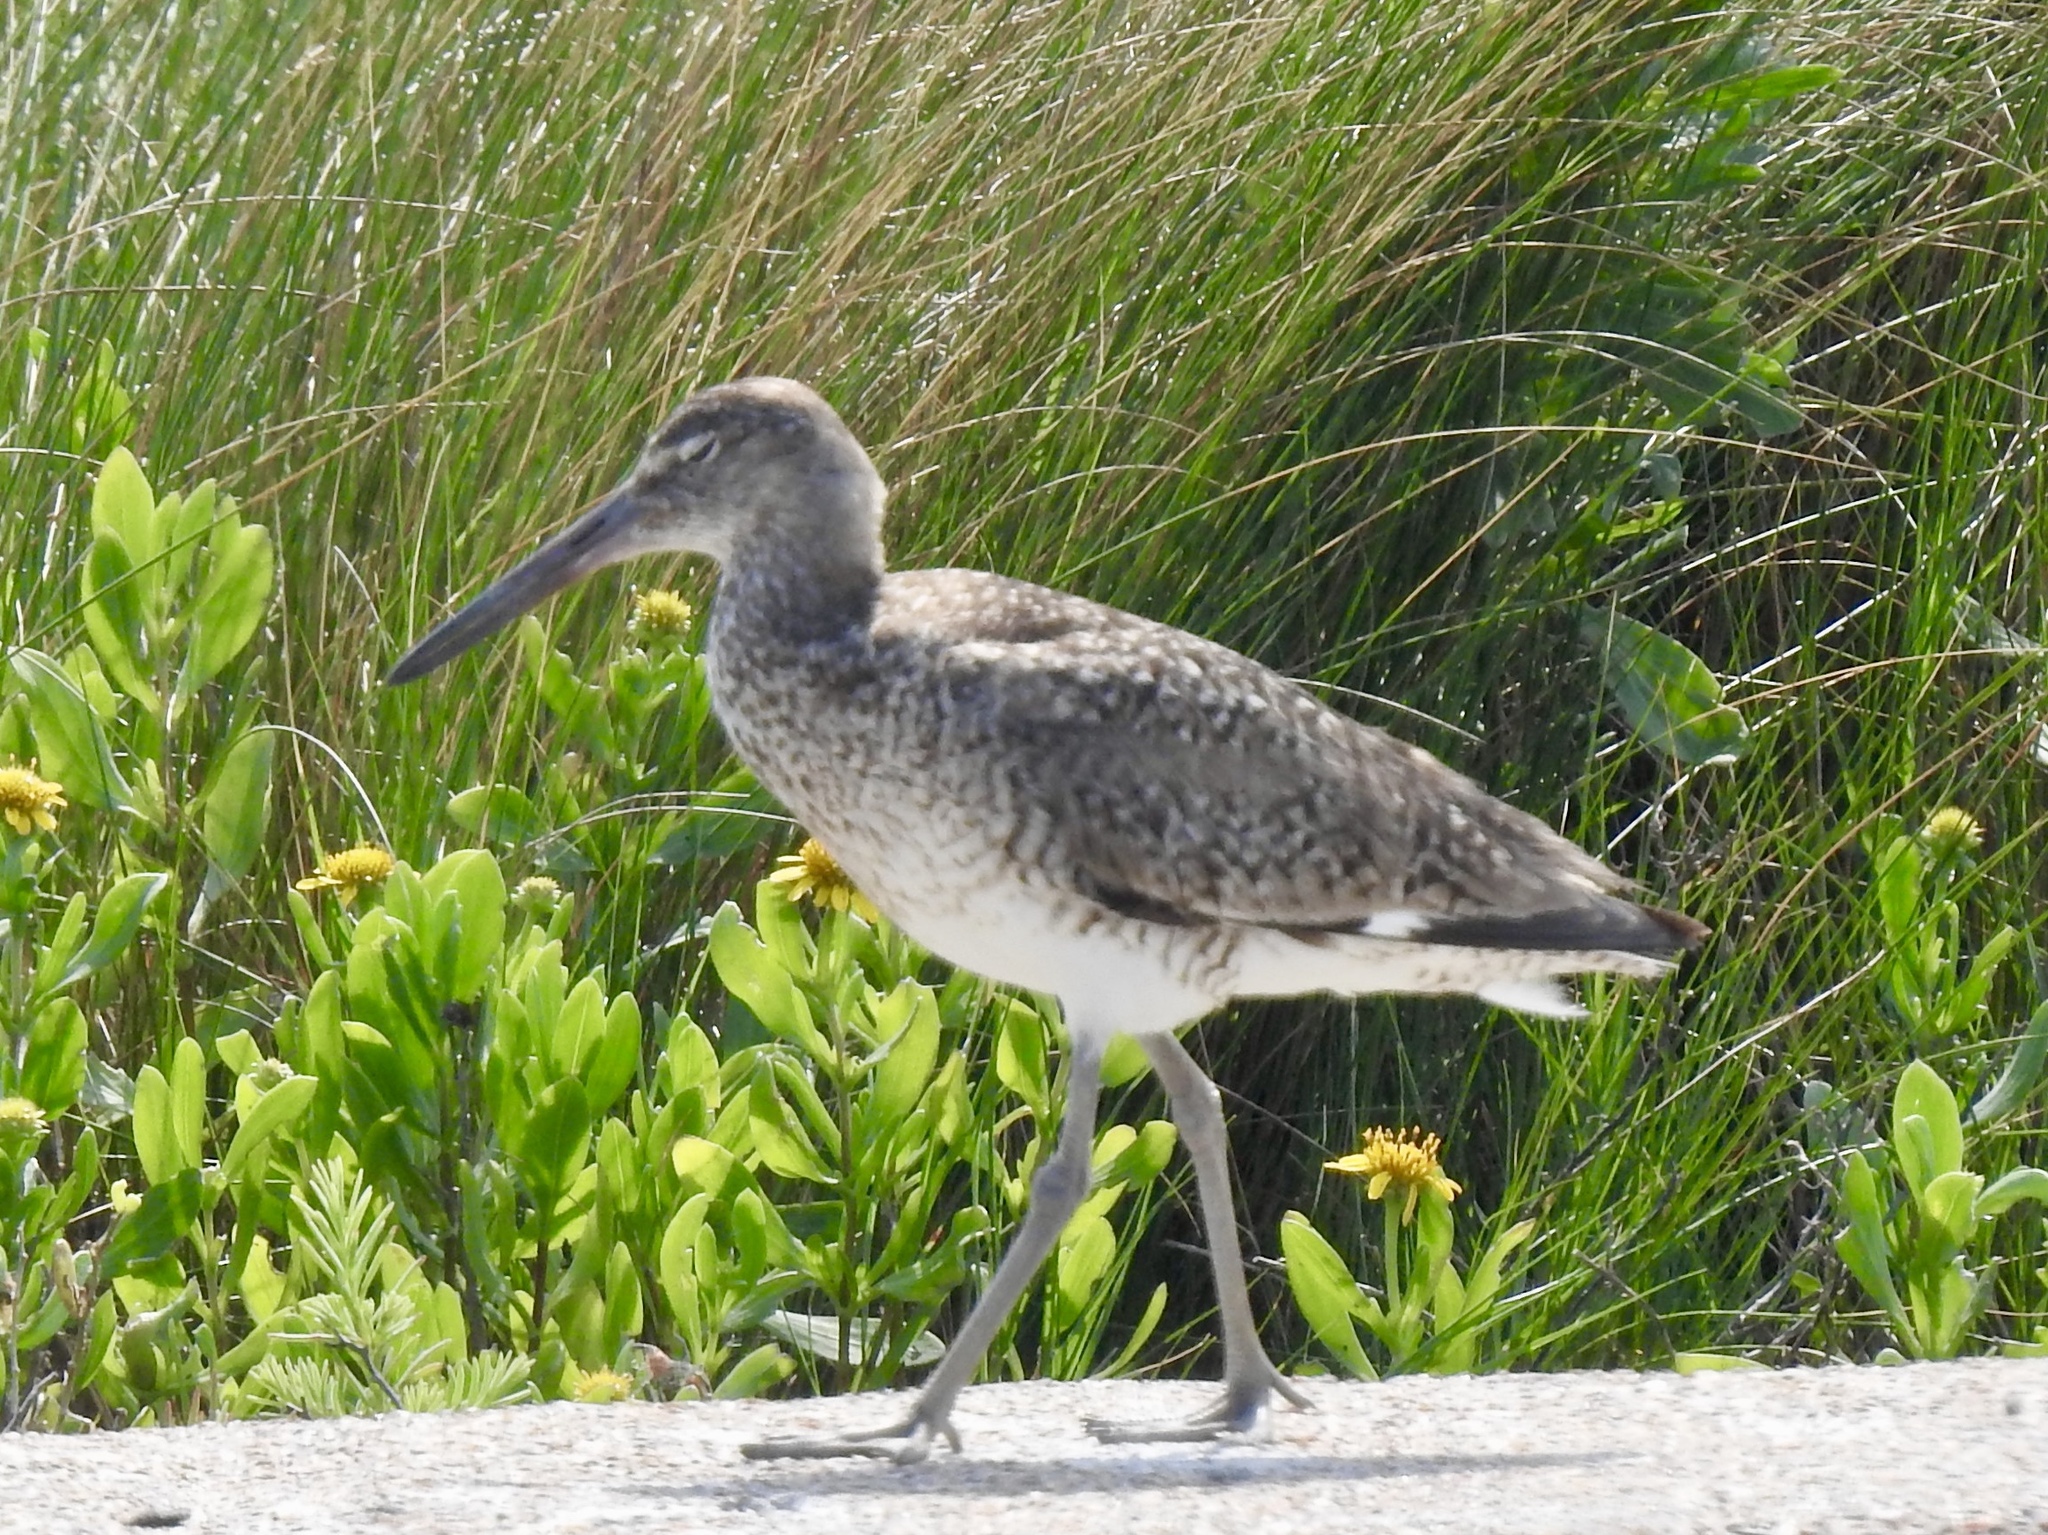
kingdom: Animalia
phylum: Chordata
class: Aves
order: Charadriiformes
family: Scolopacidae
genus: Tringa
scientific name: Tringa semipalmata
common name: Willet
